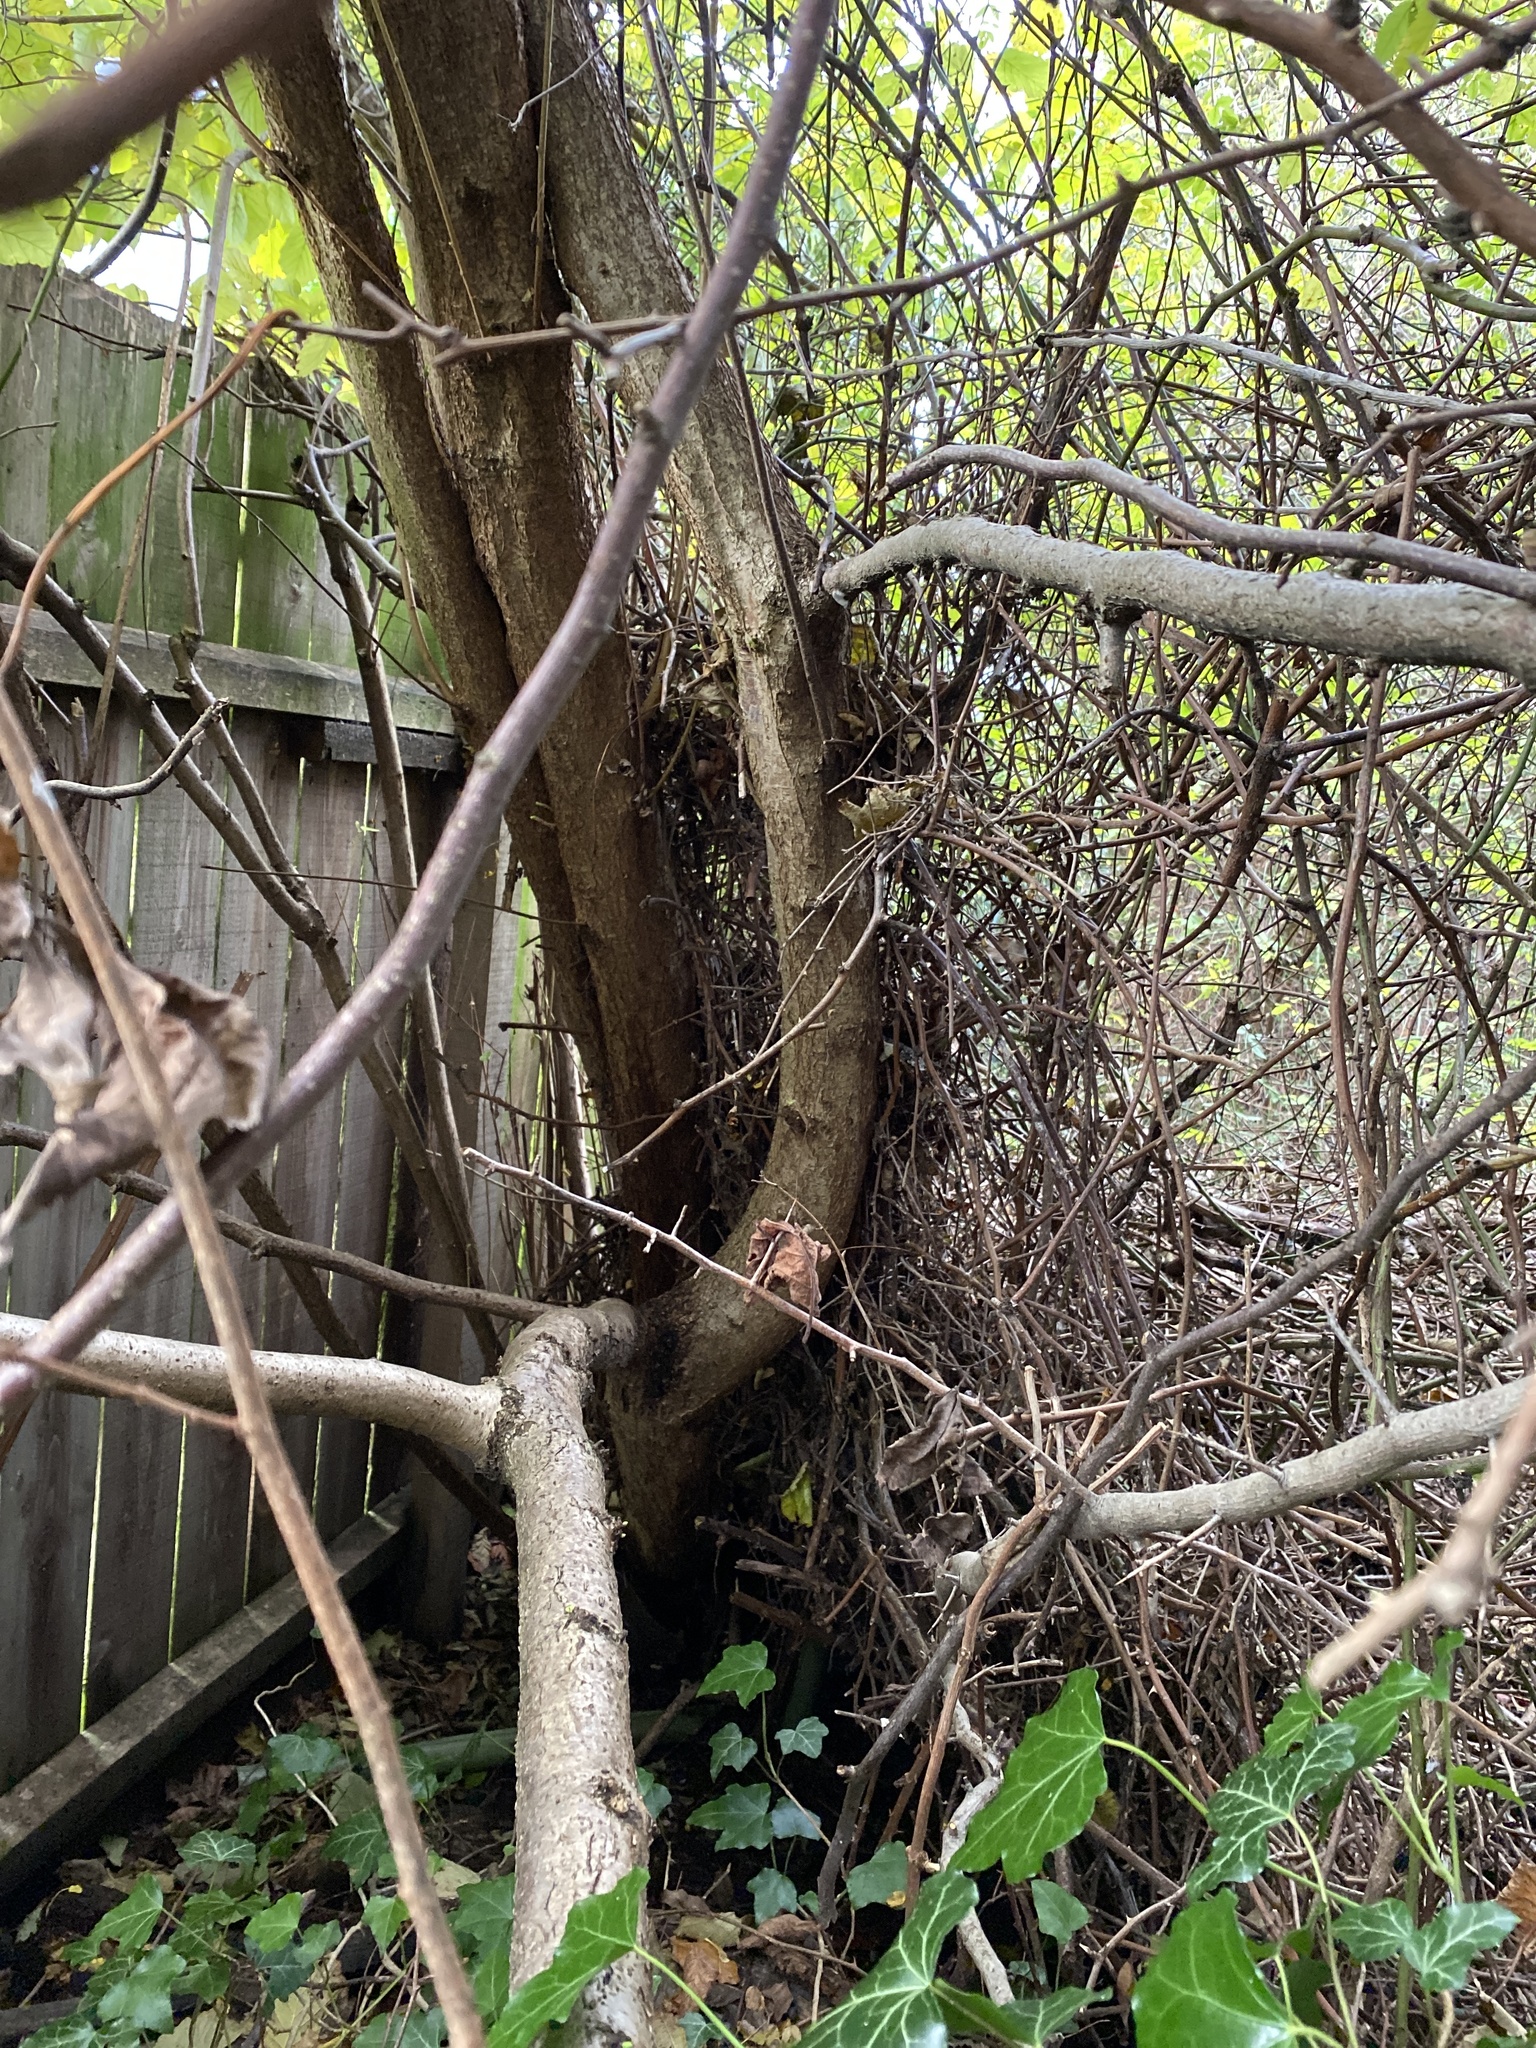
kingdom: Plantae
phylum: Tracheophyta
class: Magnoliopsida
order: Fagales
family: Betulaceae
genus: Corylus
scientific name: Corylus avellana
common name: European hazel
